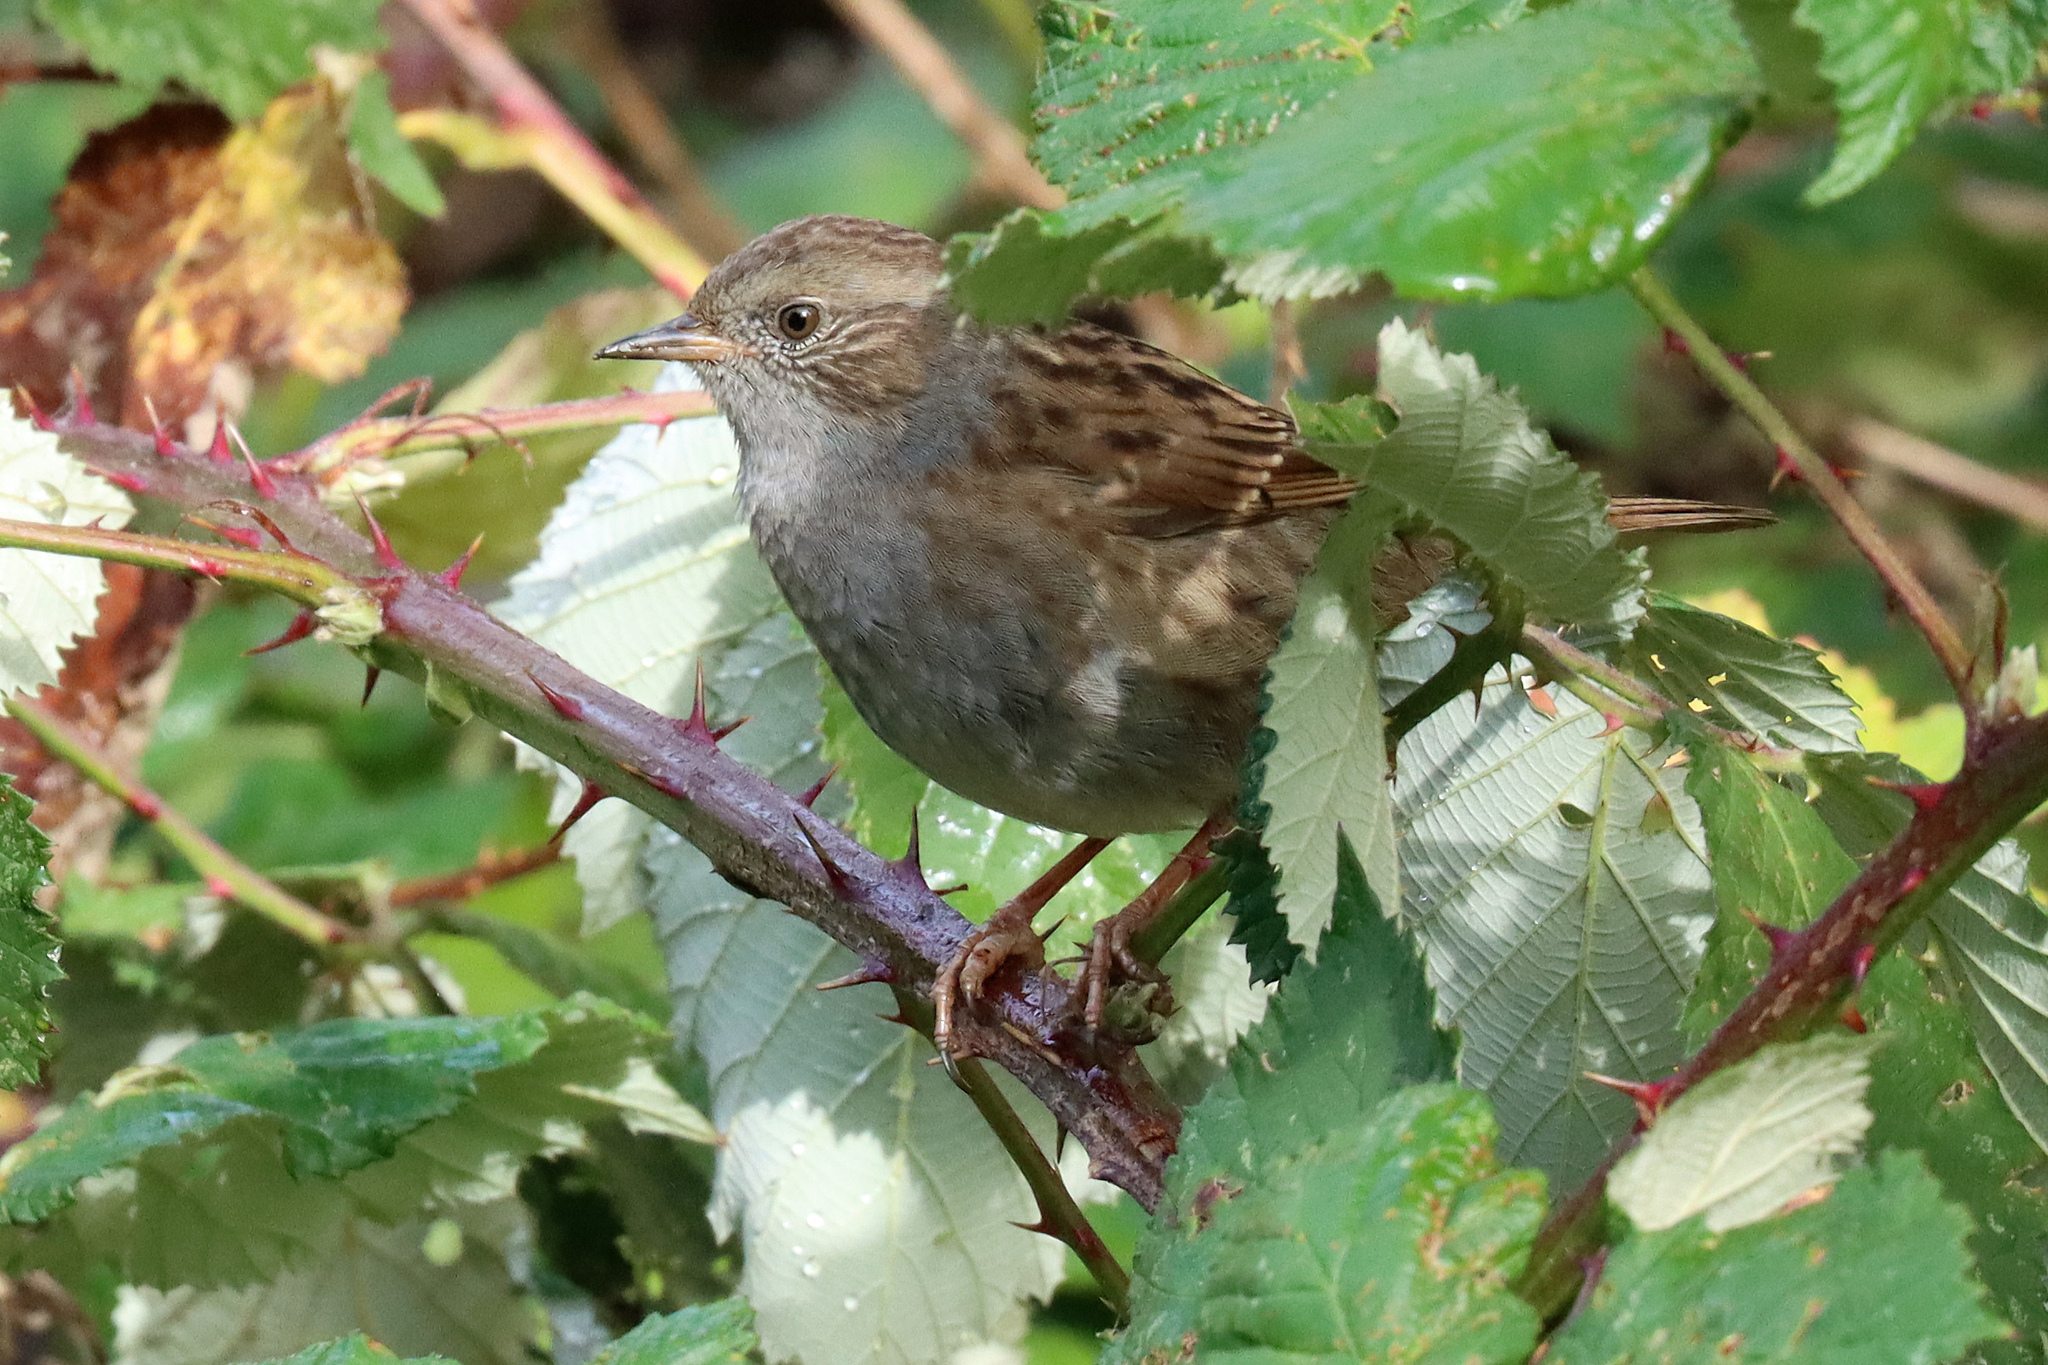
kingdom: Animalia
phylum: Chordata
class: Aves
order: Passeriformes
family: Prunellidae
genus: Prunella
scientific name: Prunella modularis
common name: Dunnock
